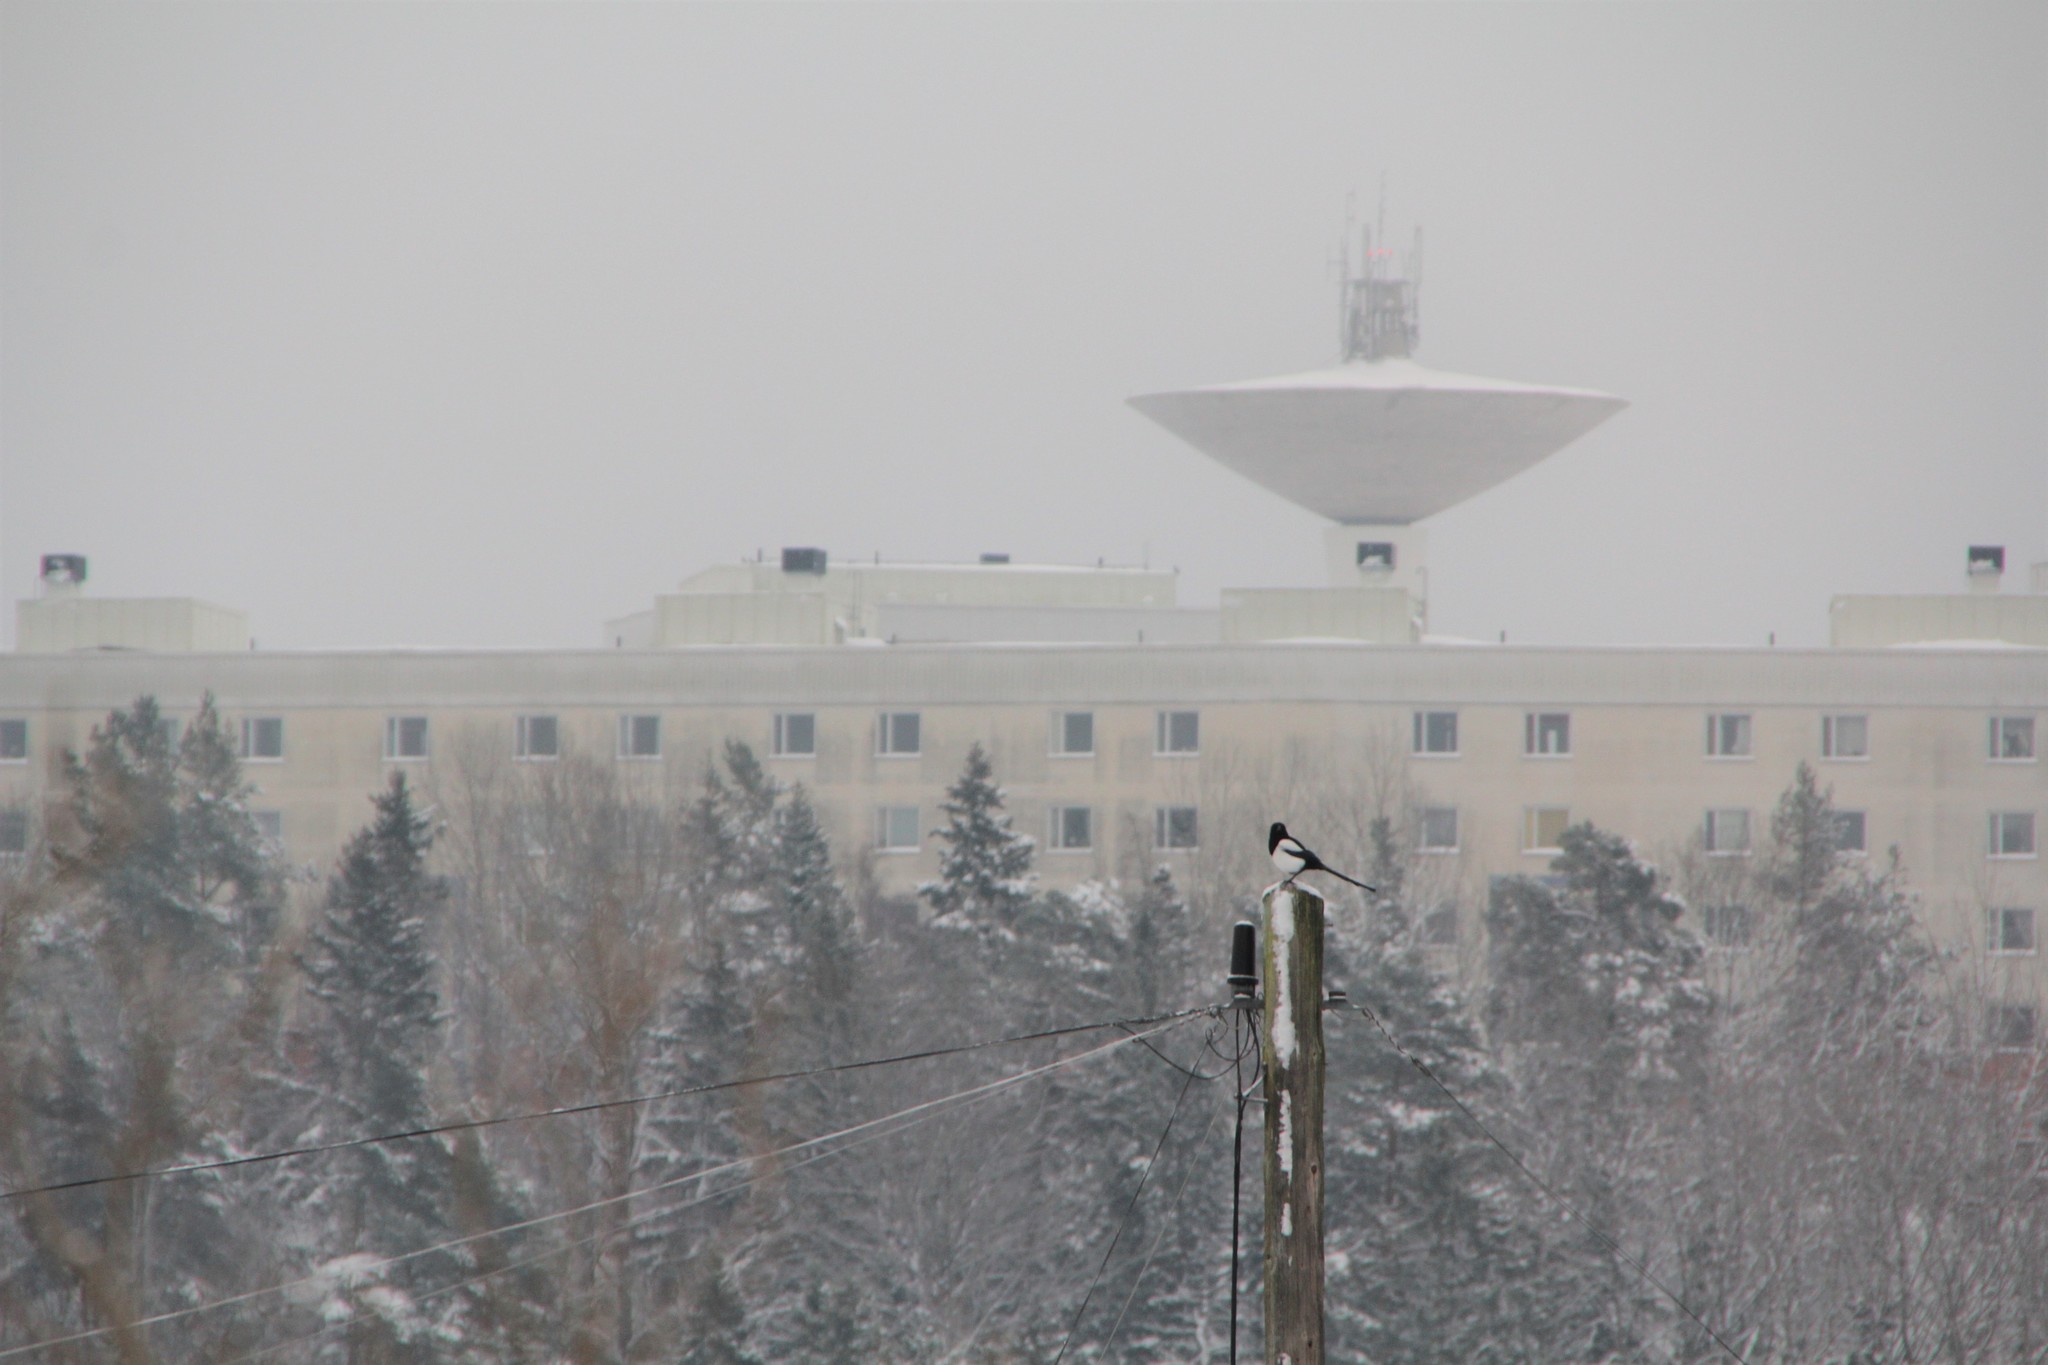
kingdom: Animalia
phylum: Chordata
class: Aves
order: Passeriformes
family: Corvidae
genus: Pica
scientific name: Pica pica
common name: Eurasian magpie
